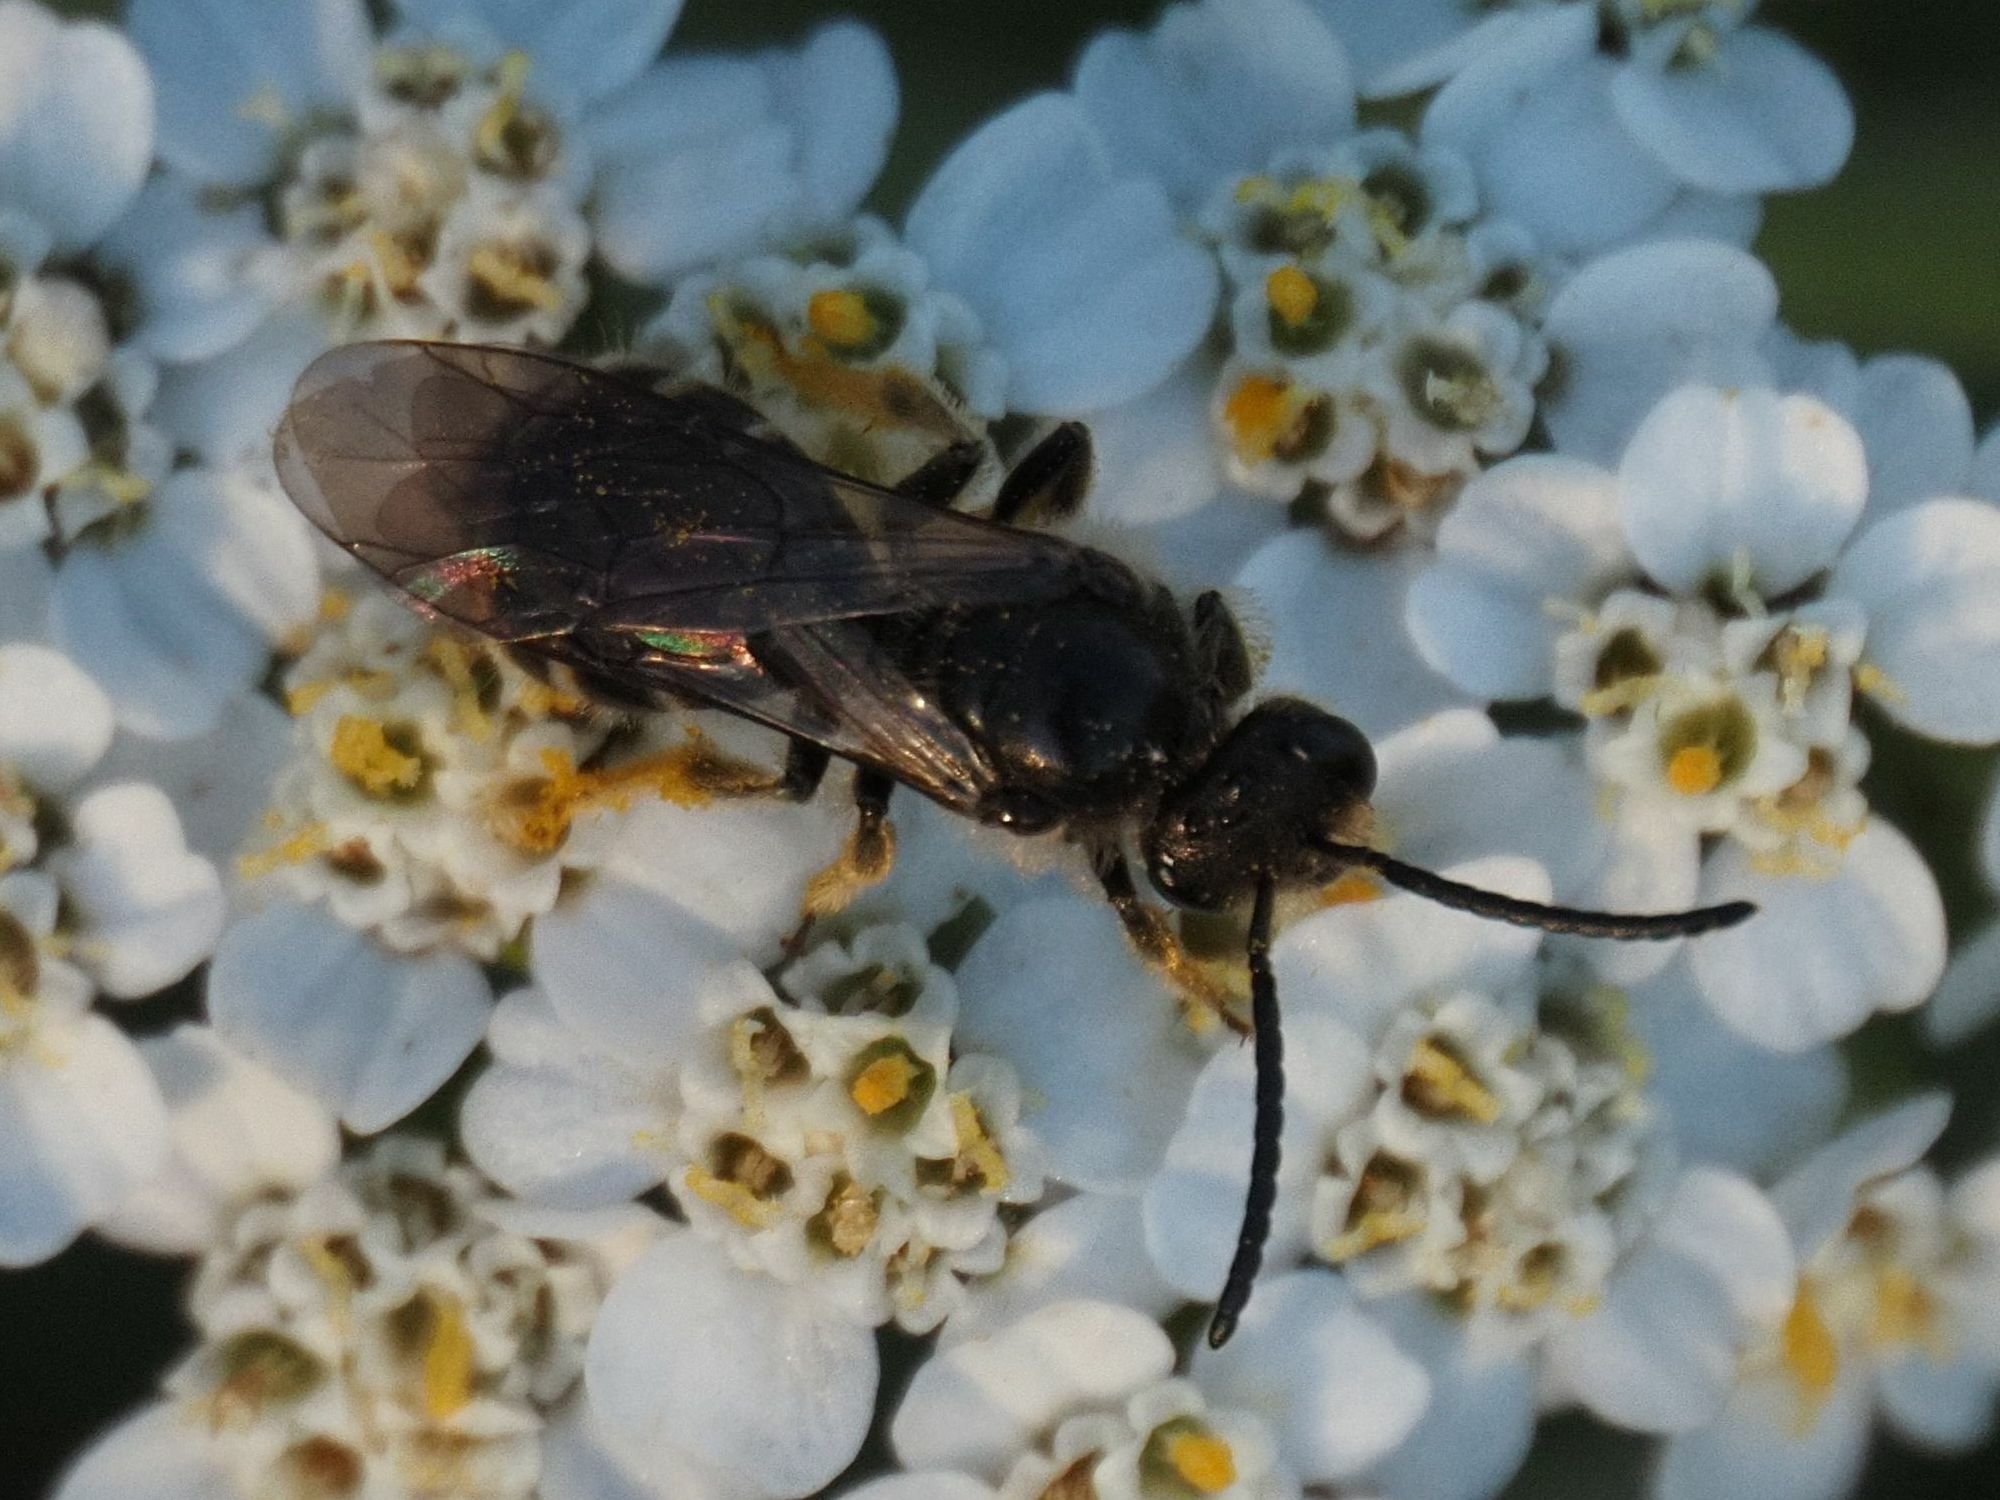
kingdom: Animalia
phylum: Arthropoda
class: Insecta
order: Hymenoptera
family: Halictidae
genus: Lasioglossum
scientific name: Lasioglossum marginatum
